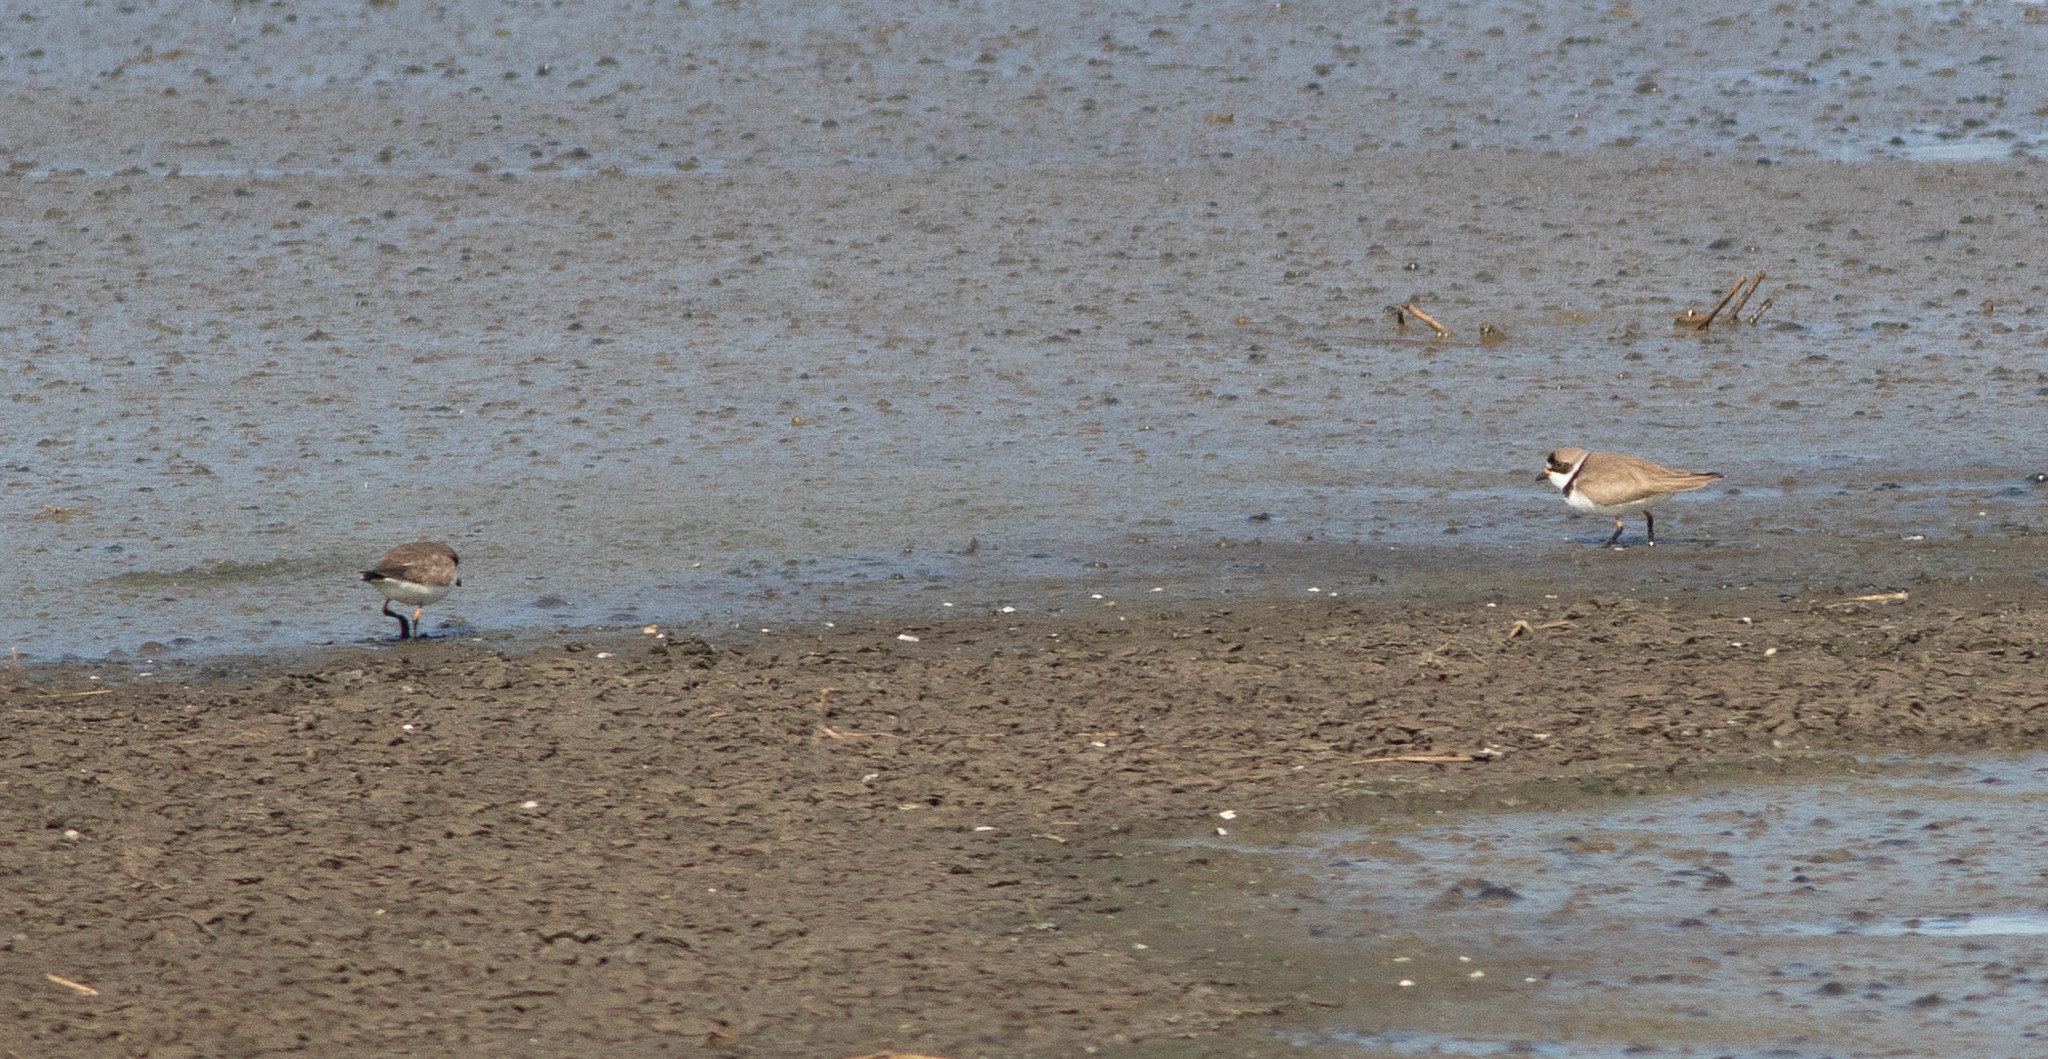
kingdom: Animalia
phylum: Chordata
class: Aves
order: Charadriiformes
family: Charadriidae
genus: Charadrius
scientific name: Charadrius semipalmatus
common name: Semipalmated plover
